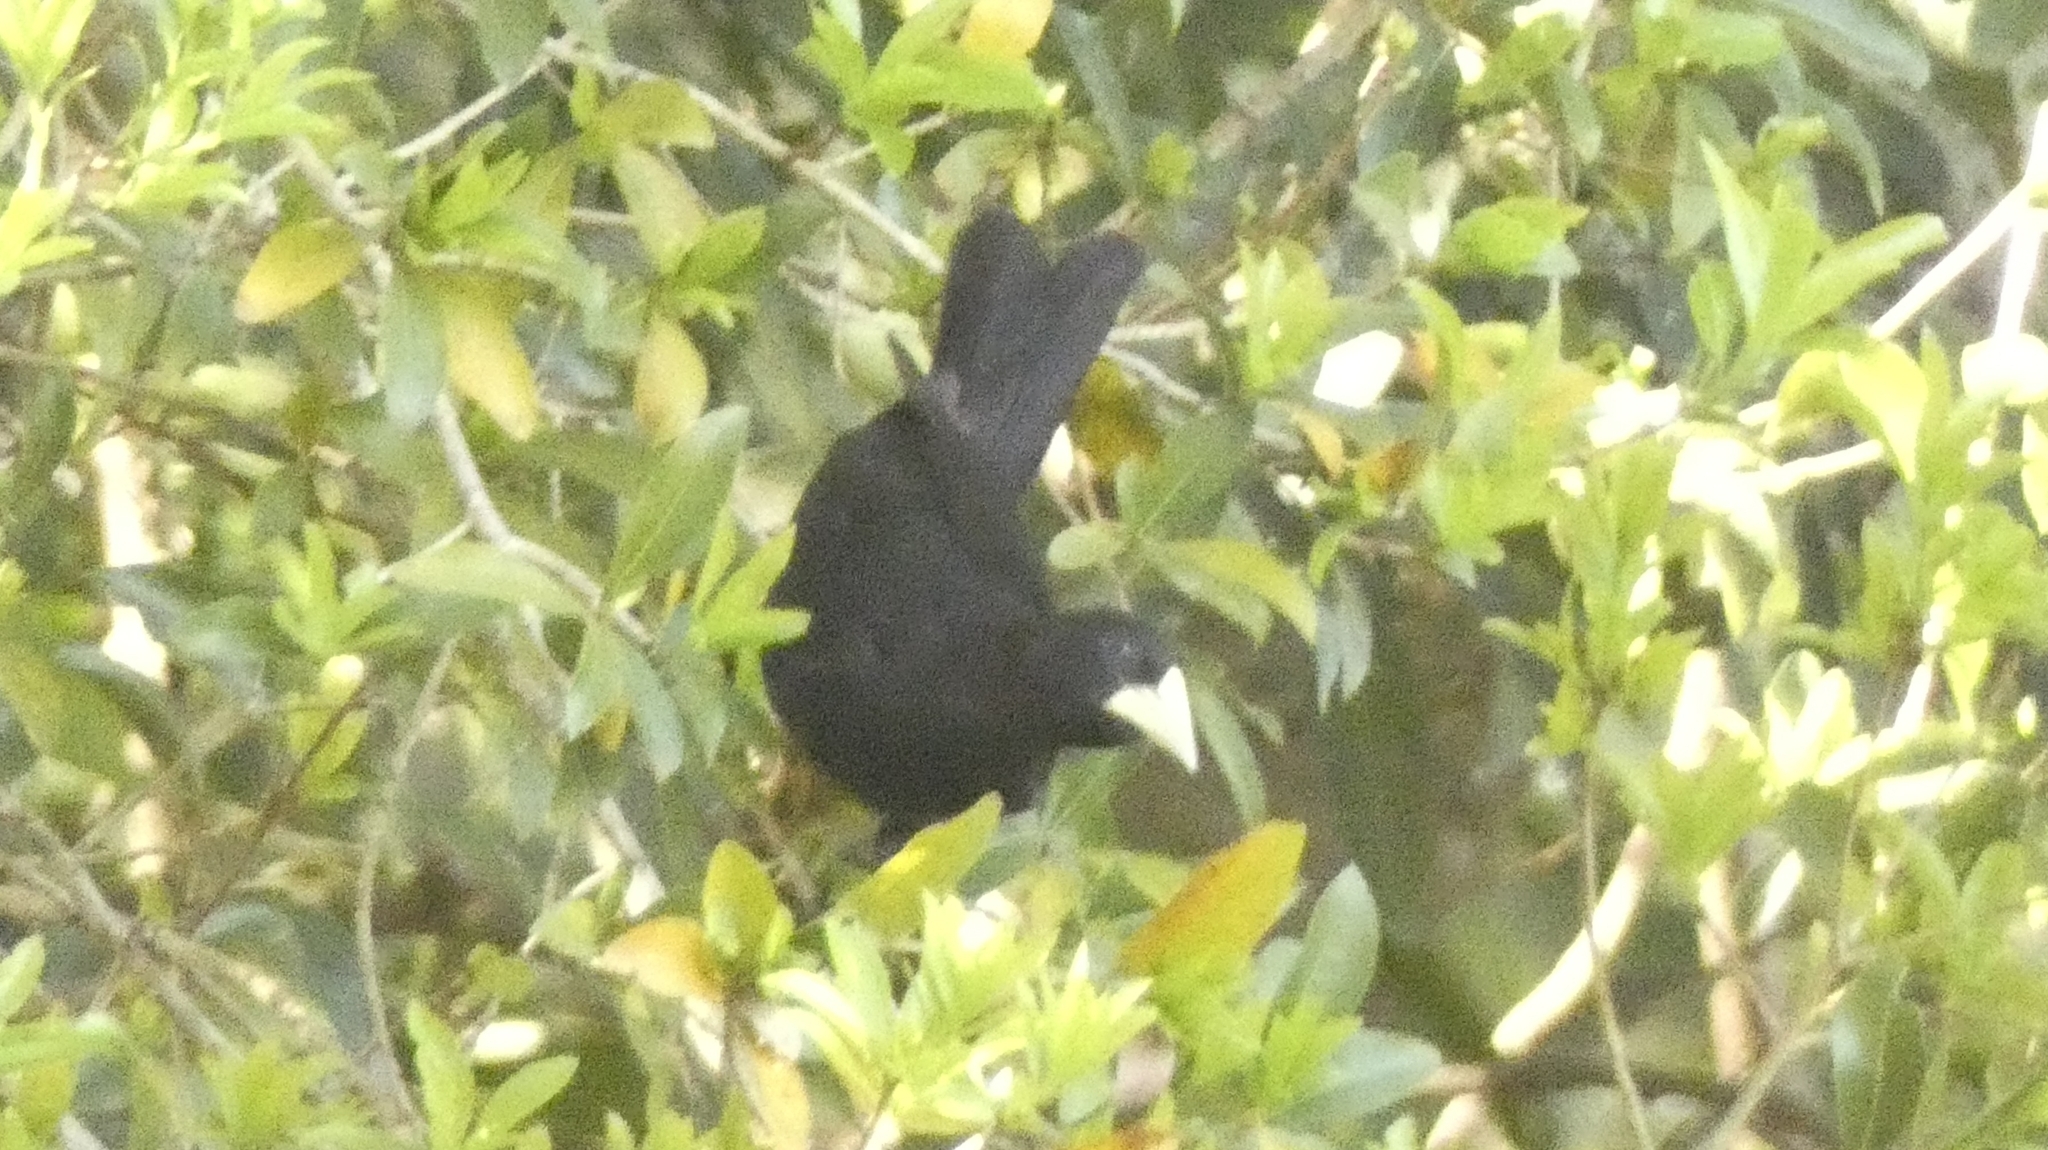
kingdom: Animalia
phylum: Chordata
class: Aves
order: Passeriformes
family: Icteridae
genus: Cacicus
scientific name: Cacicus haemorrhous
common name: Red-rumped cacique
